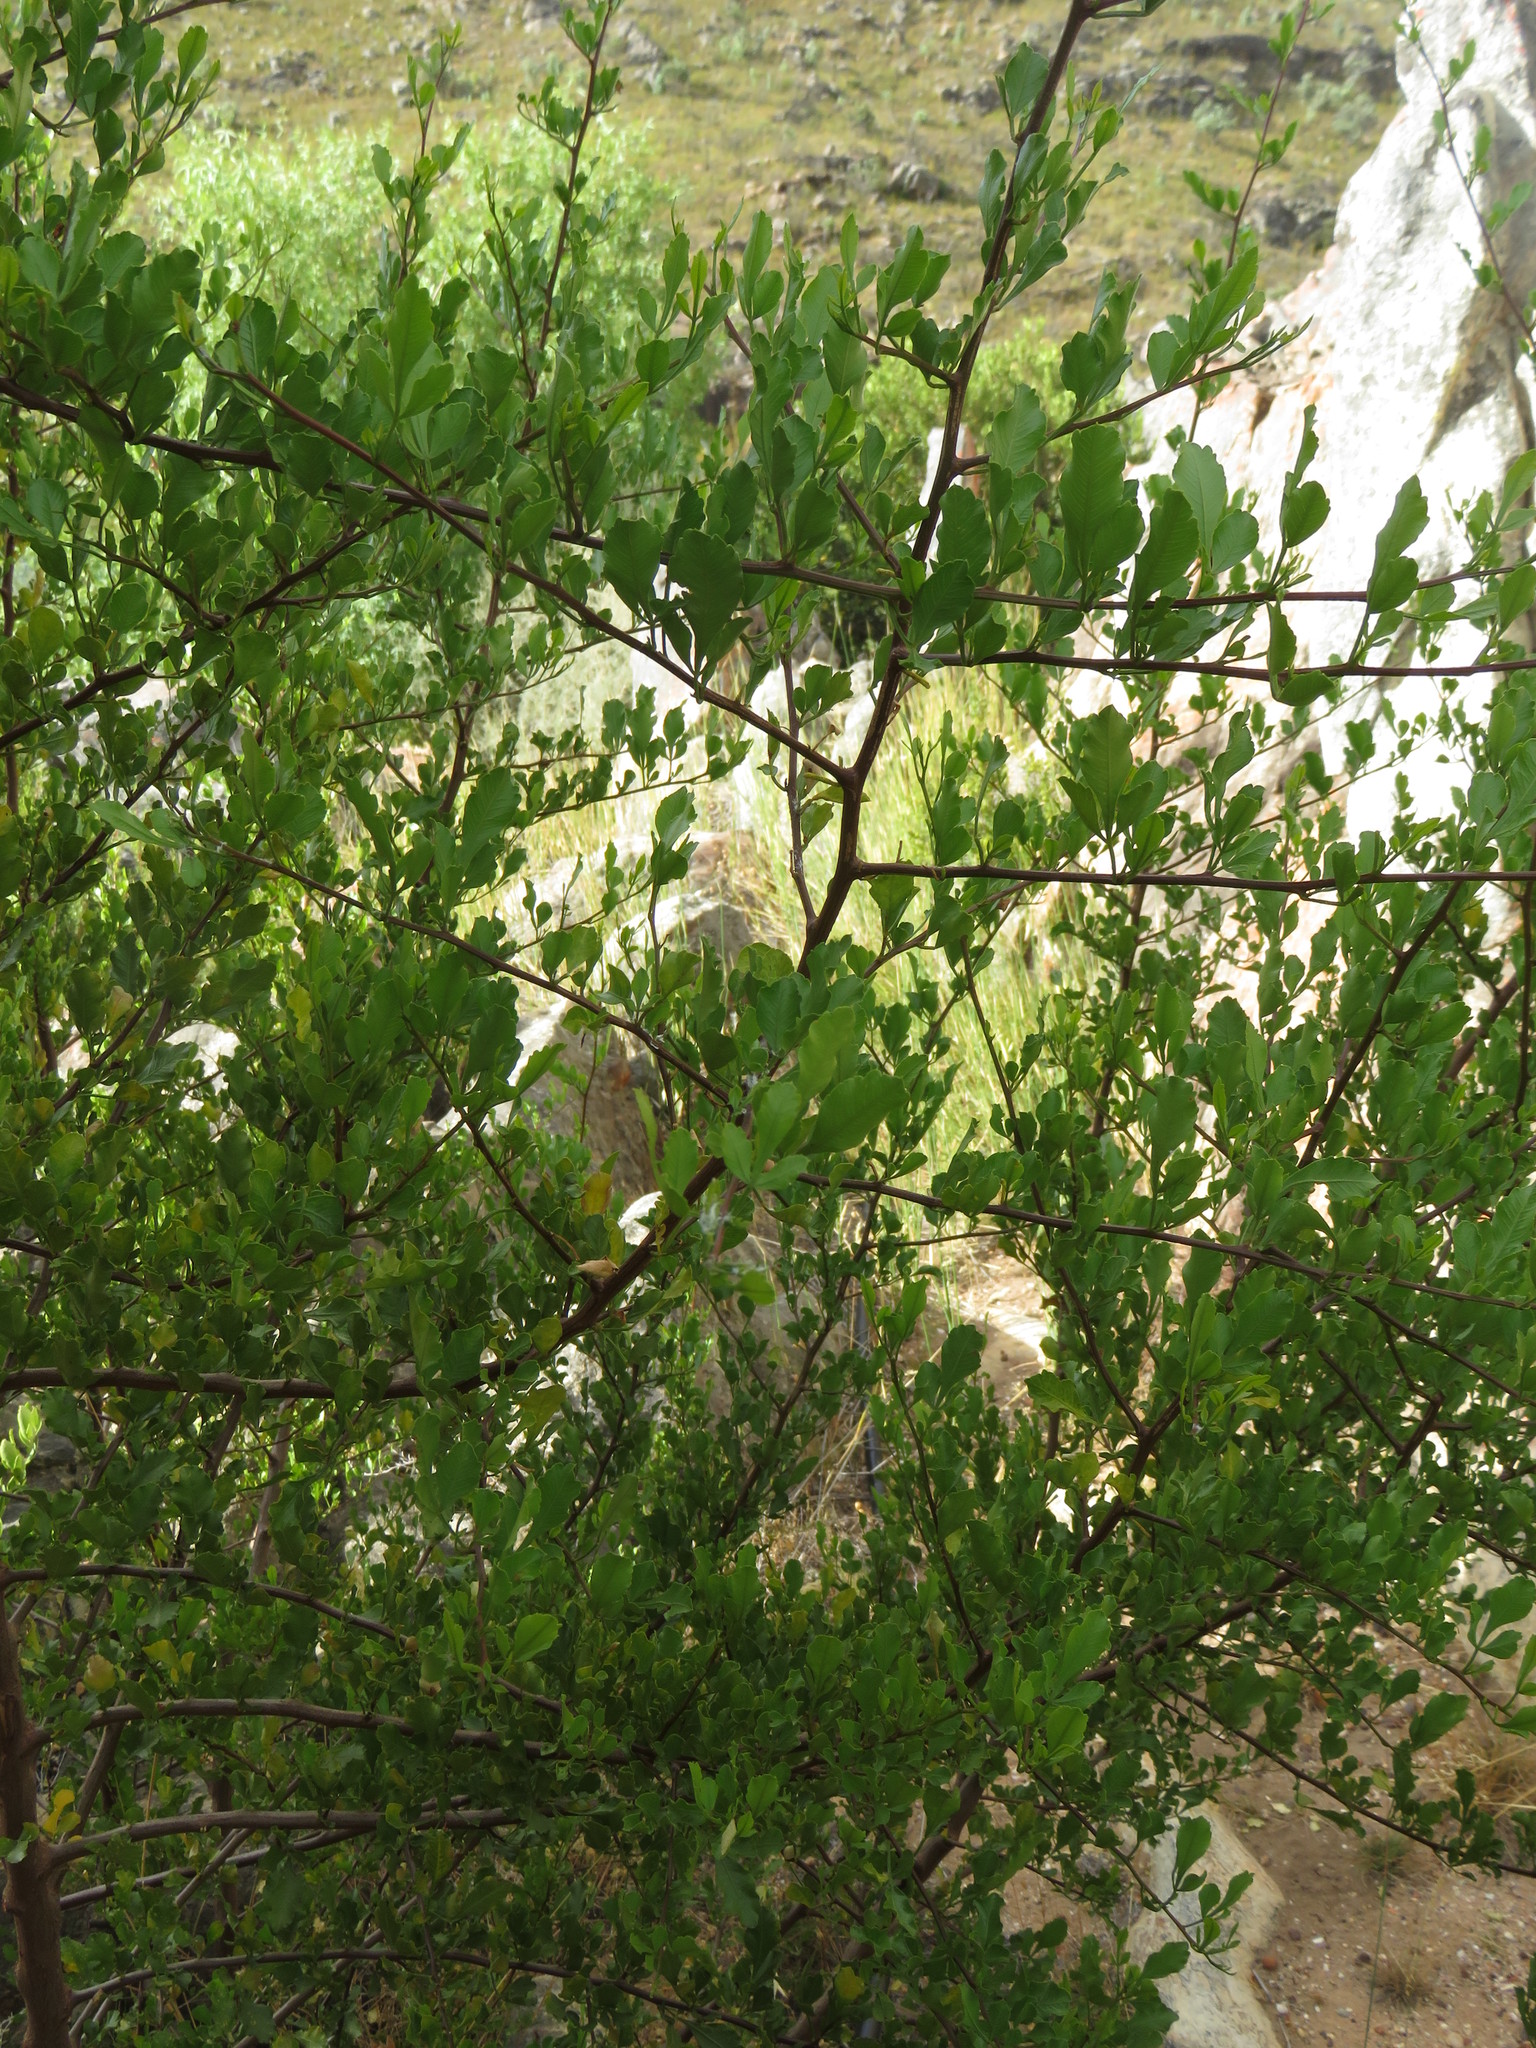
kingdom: Plantae
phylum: Tracheophyta
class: Magnoliopsida
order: Sapindales
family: Anacardiaceae
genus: Searsia
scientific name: Searsia undulata
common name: Namaqua kunibush
